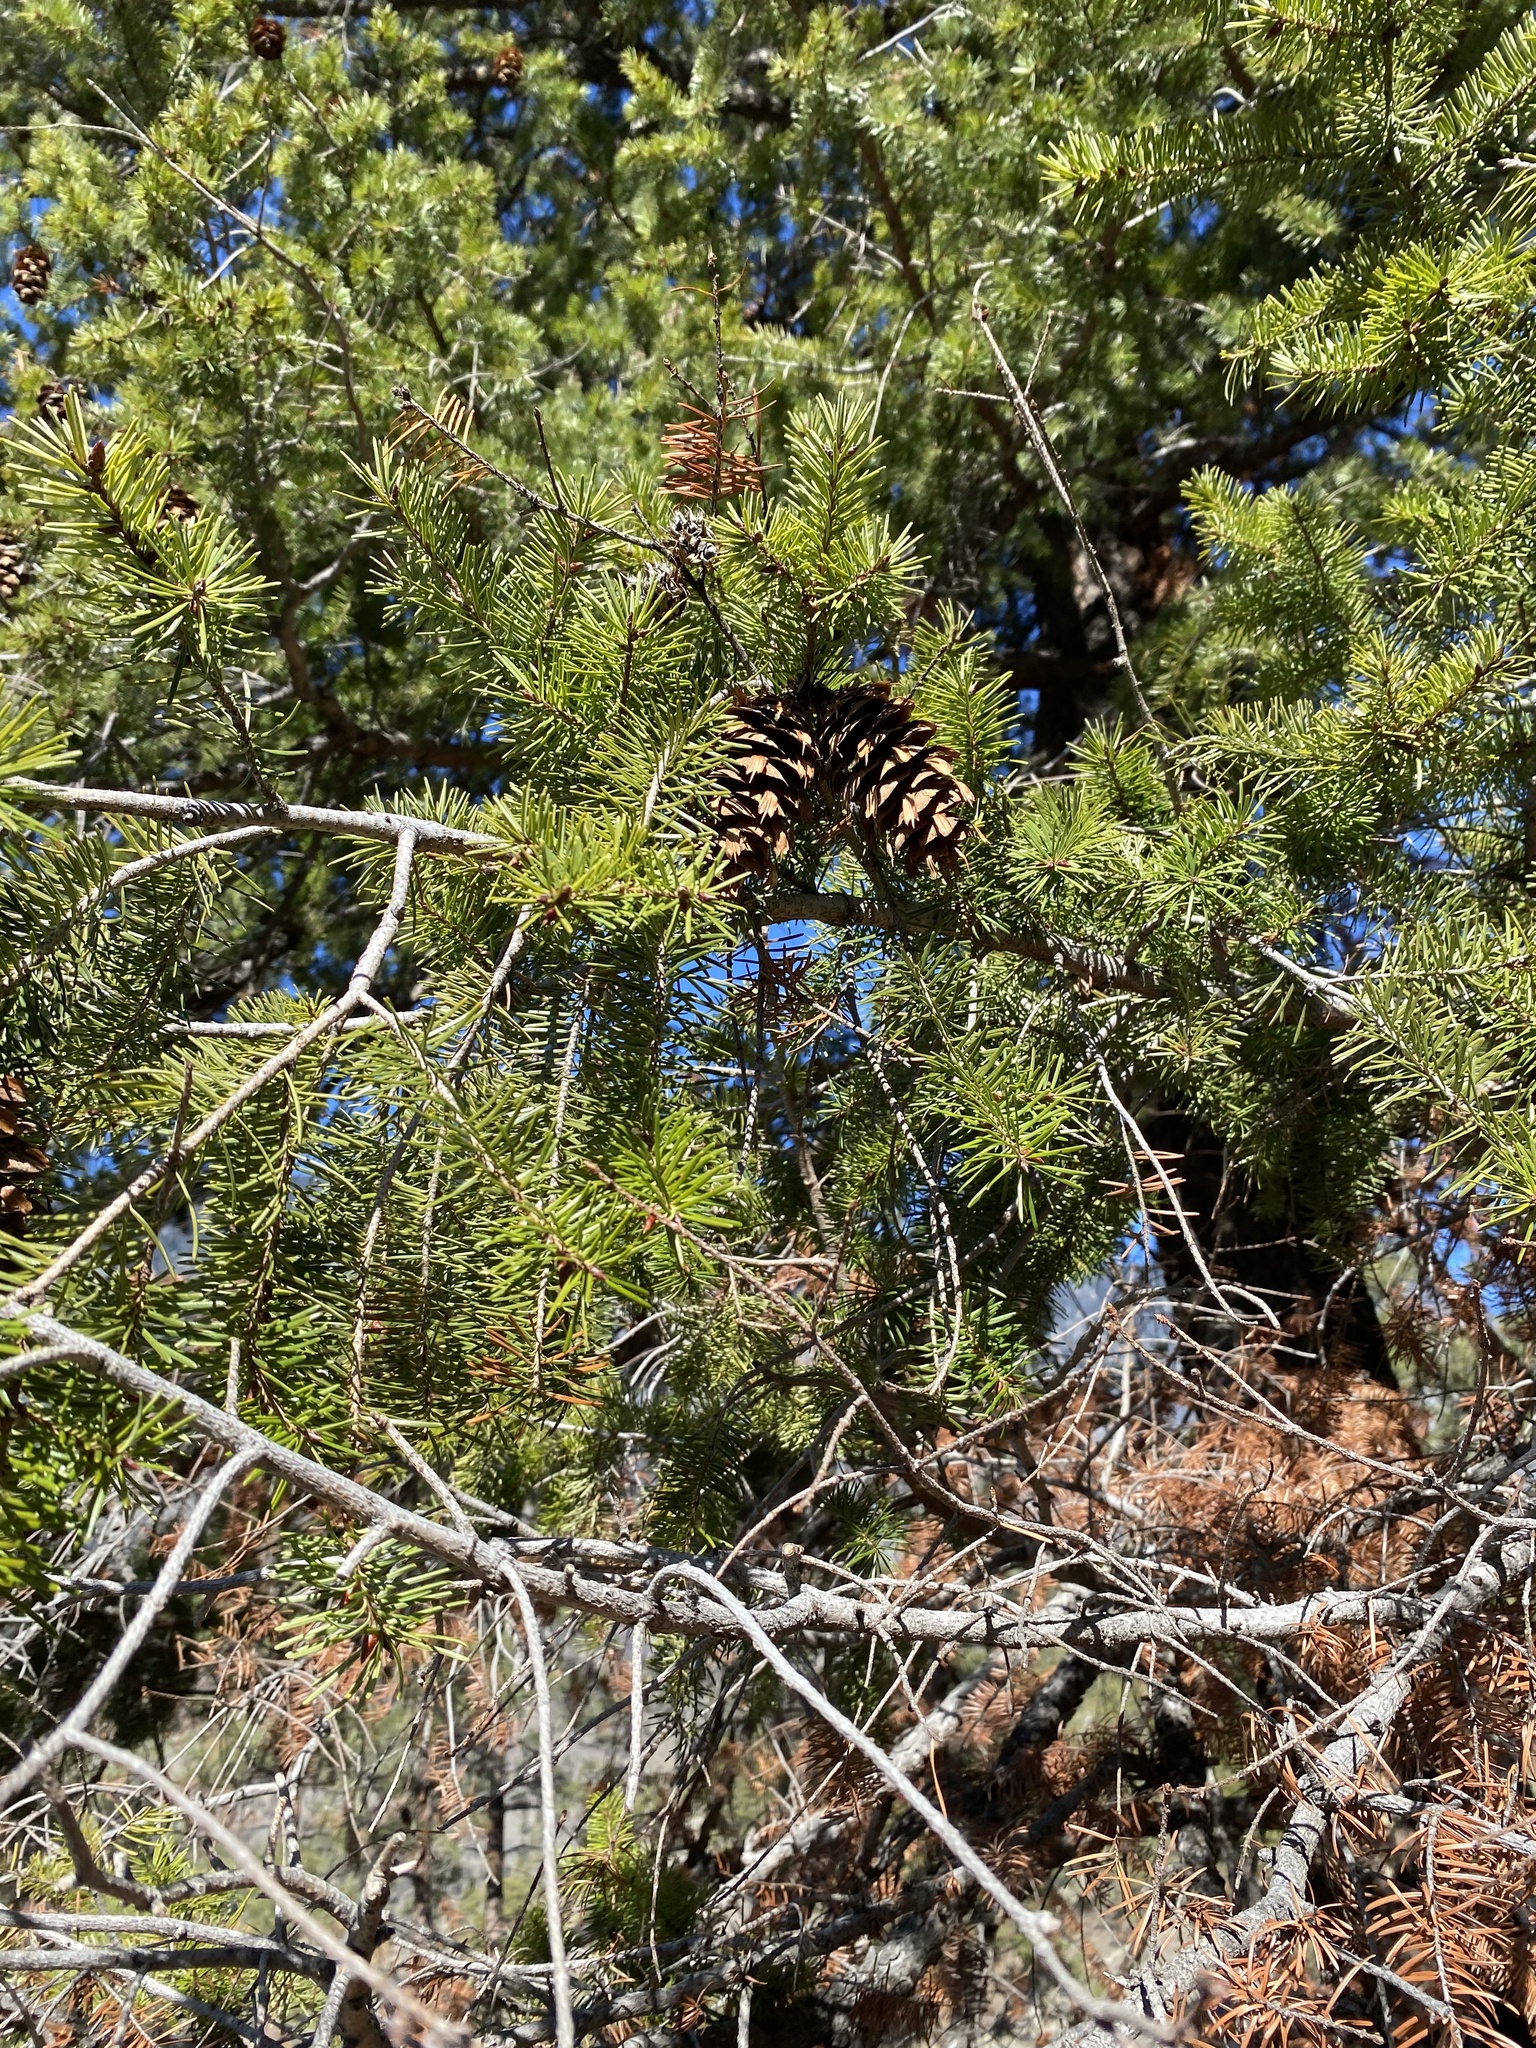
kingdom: Plantae
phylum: Tracheophyta
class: Pinopsida
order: Pinales
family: Pinaceae
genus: Pseudotsuga
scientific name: Pseudotsuga menziesii
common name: Douglas fir
